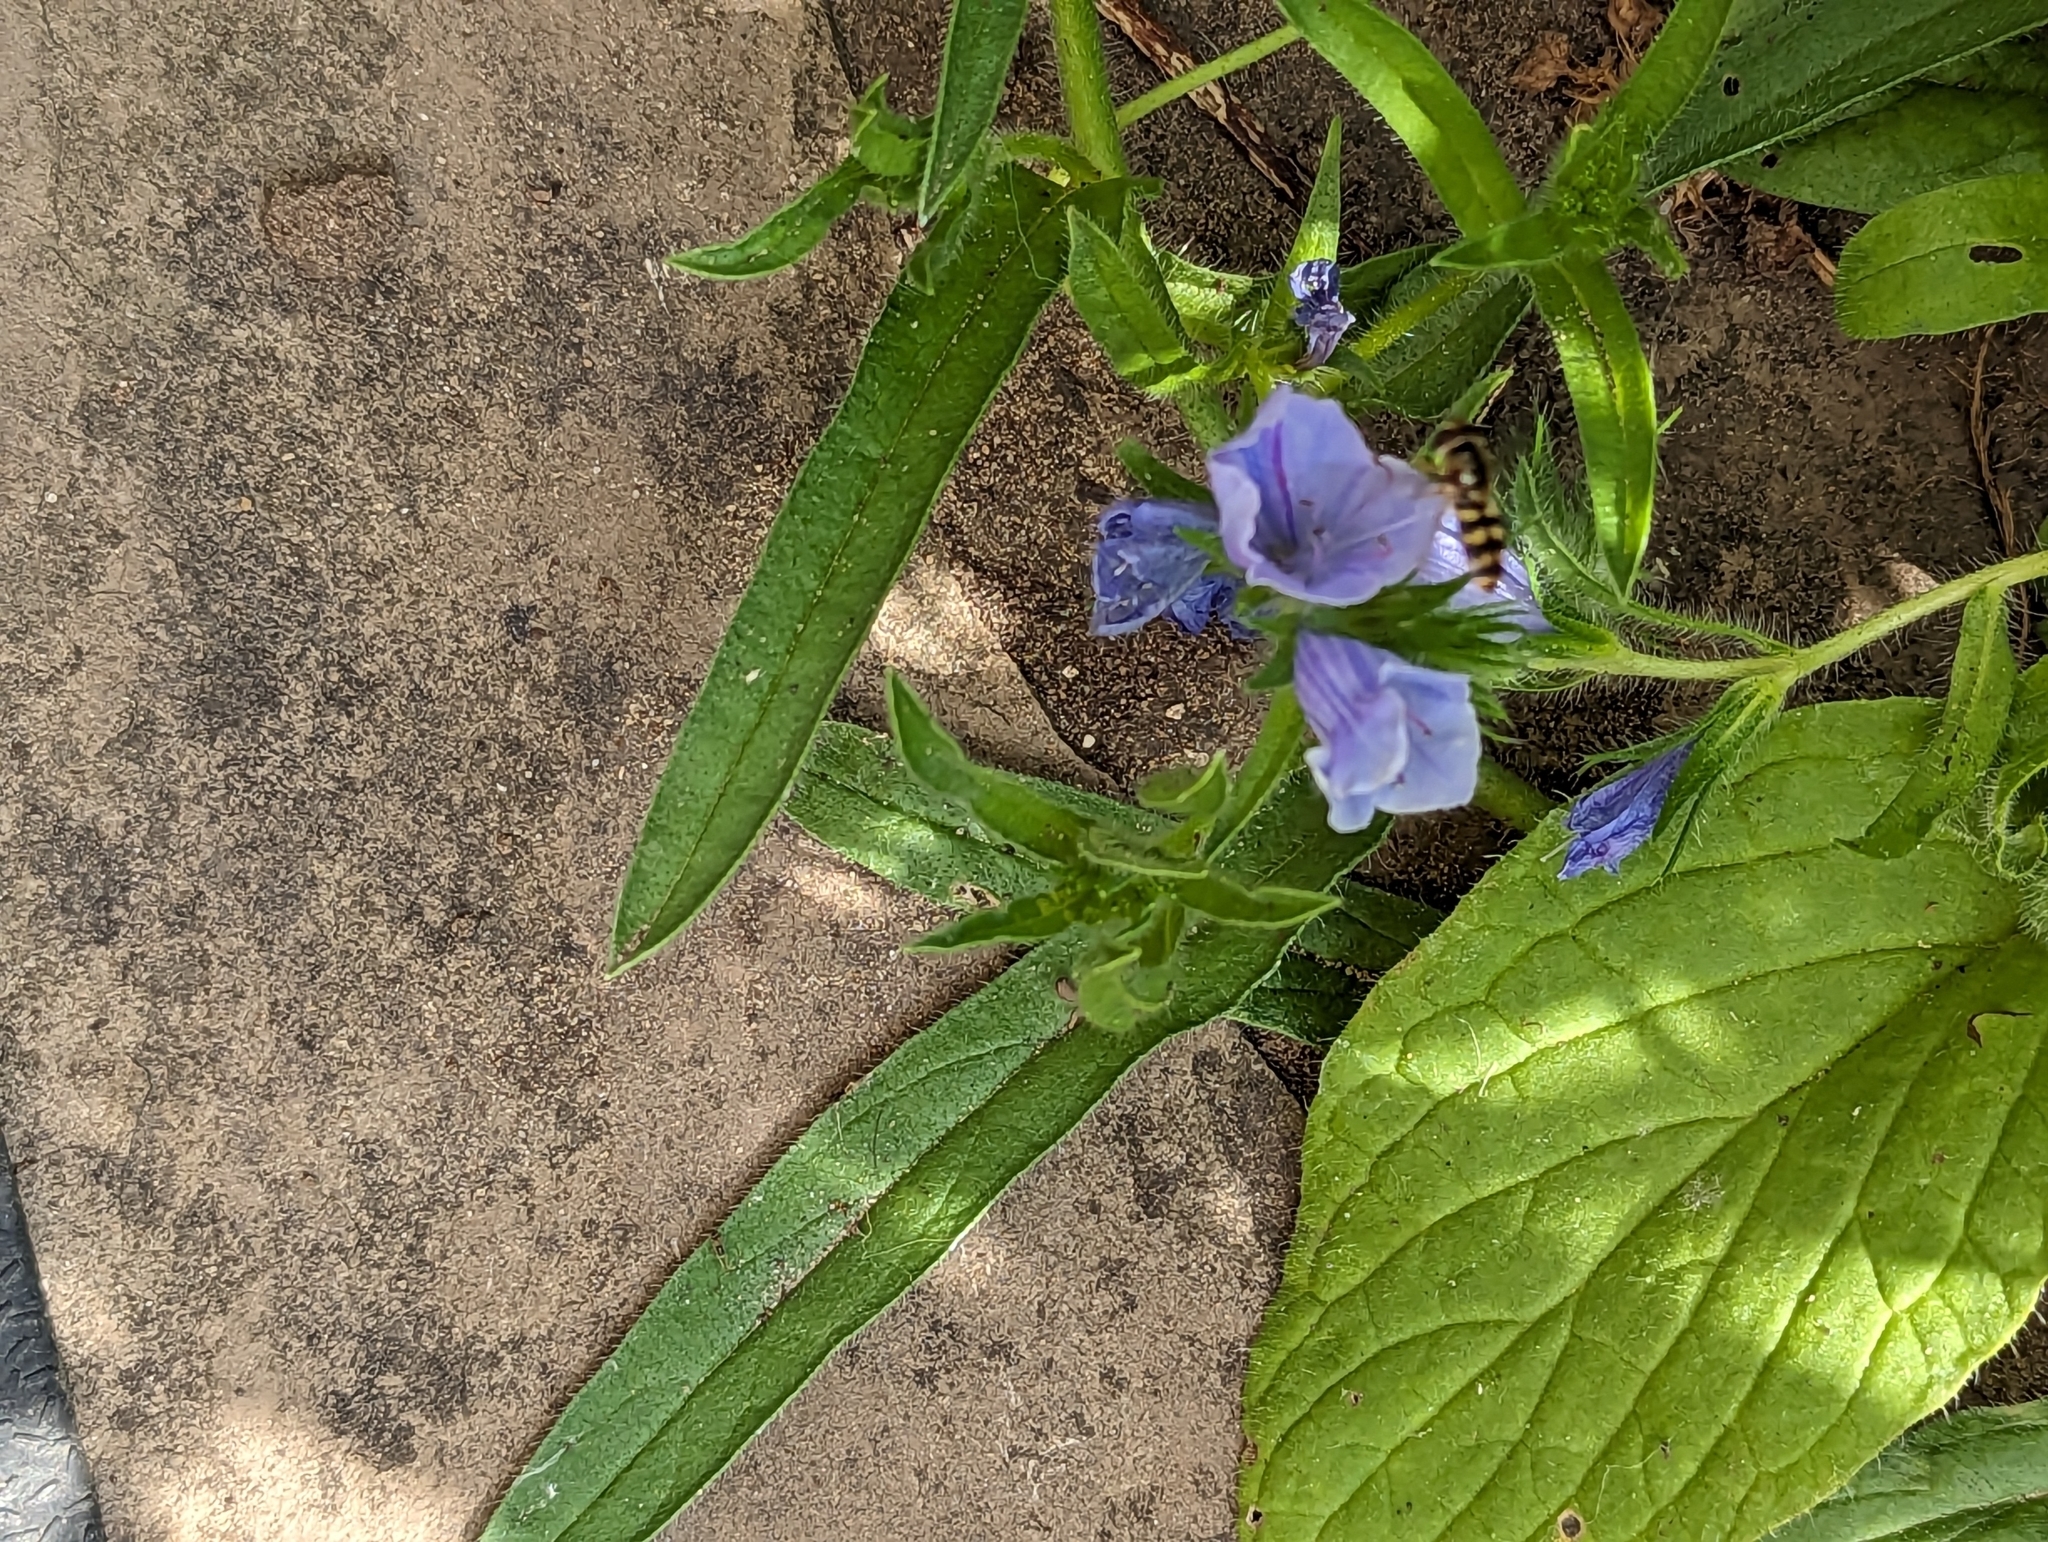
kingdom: Animalia
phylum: Arthropoda
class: Insecta
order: Diptera
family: Syrphidae
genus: Eupeodes
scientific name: Eupeodes corollae
